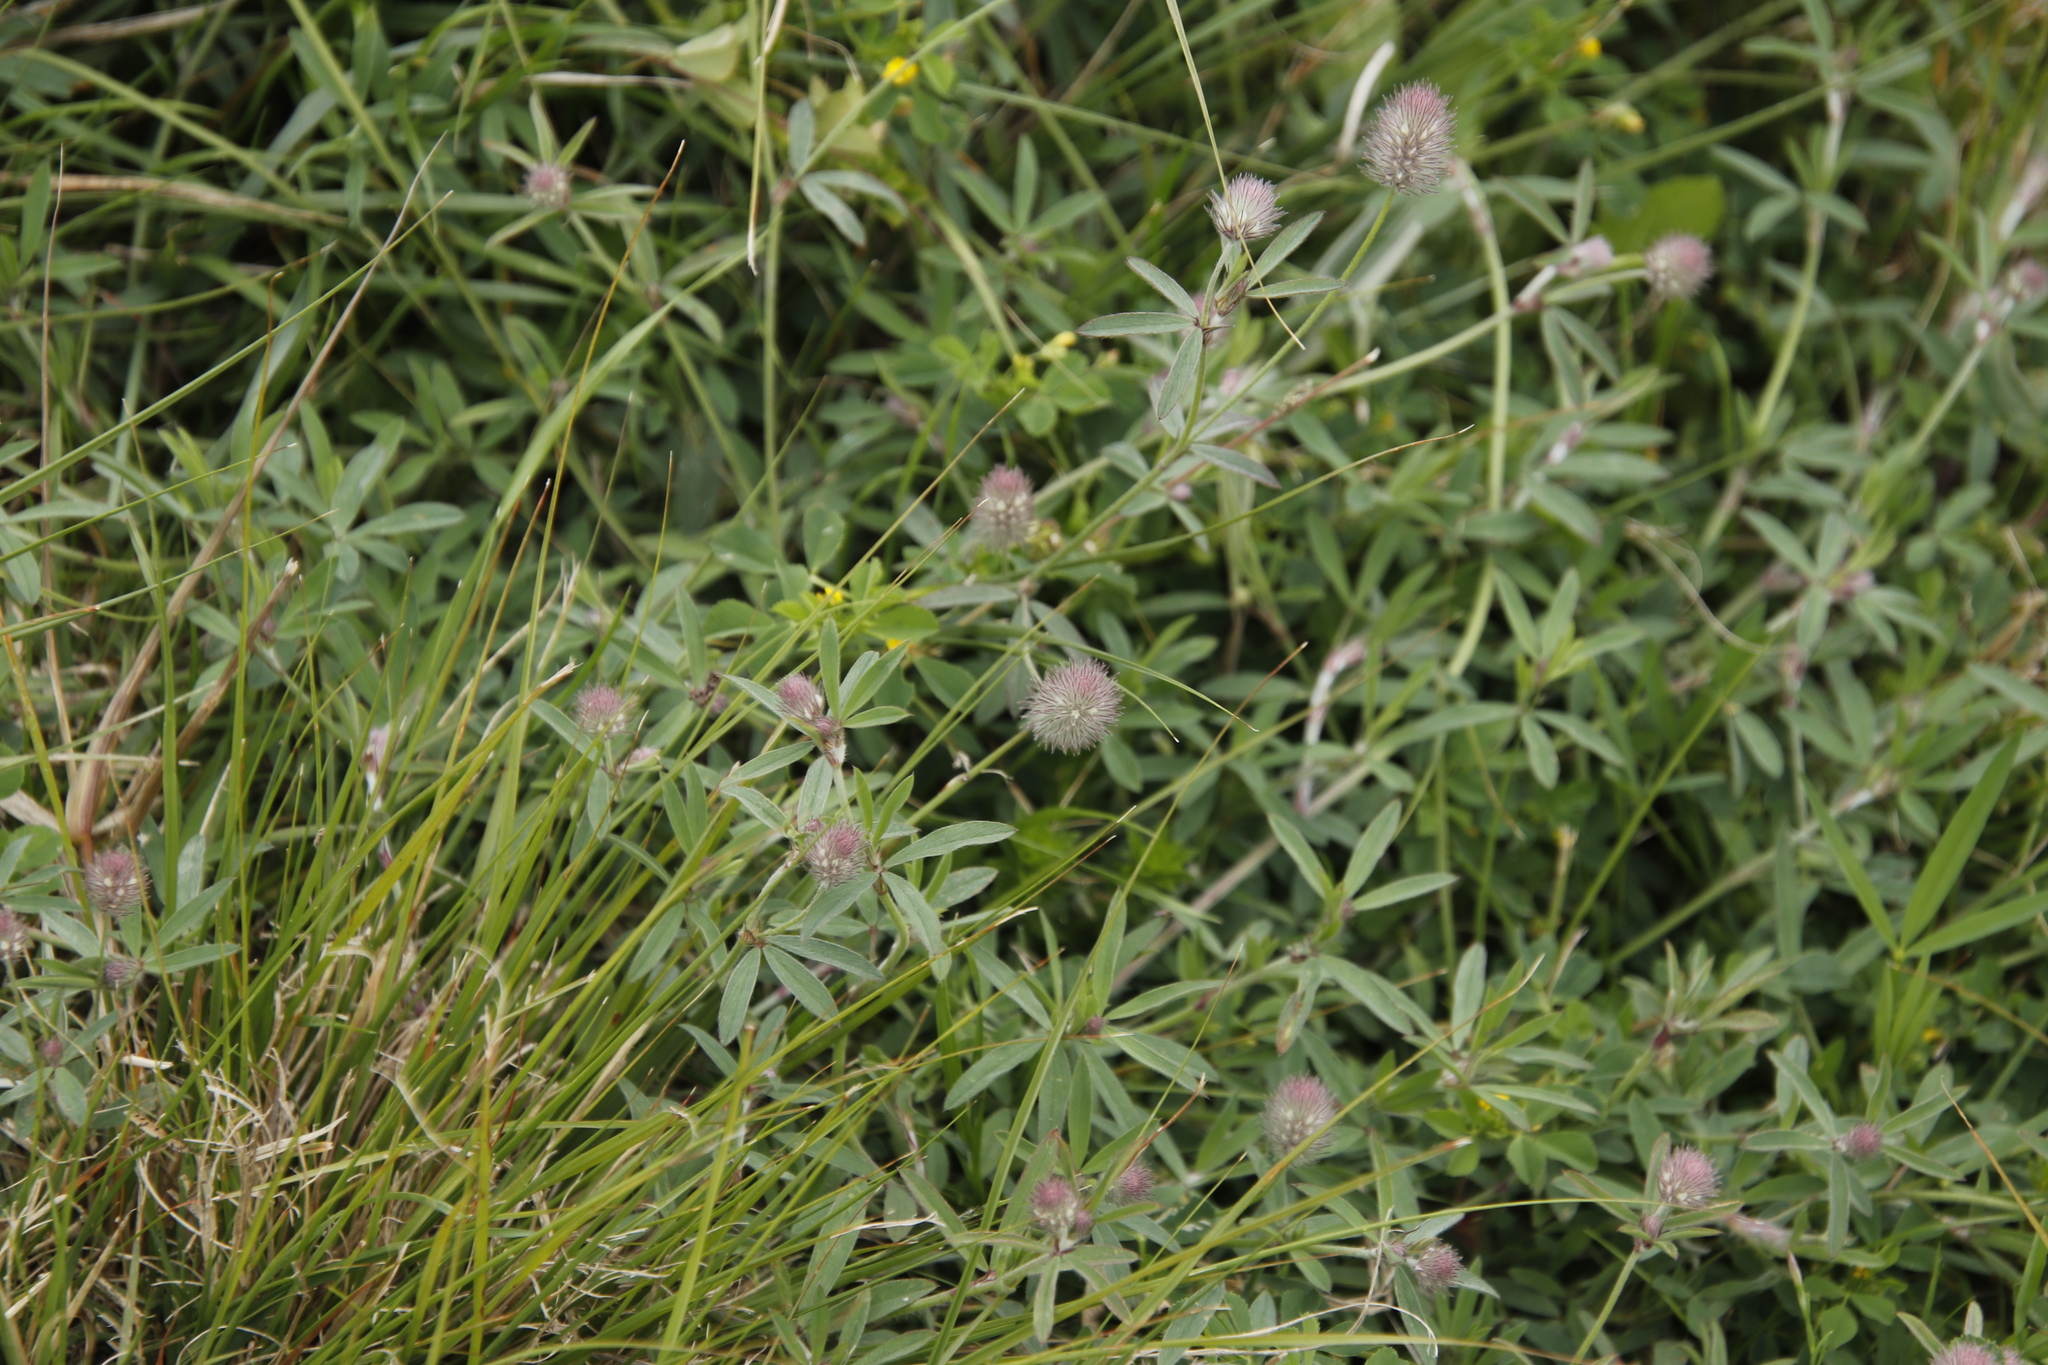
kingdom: Plantae
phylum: Tracheophyta
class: Magnoliopsida
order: Fabales
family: Fabaceae
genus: Trifolium
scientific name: Trifolium arvense
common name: Hare's-foot clover
